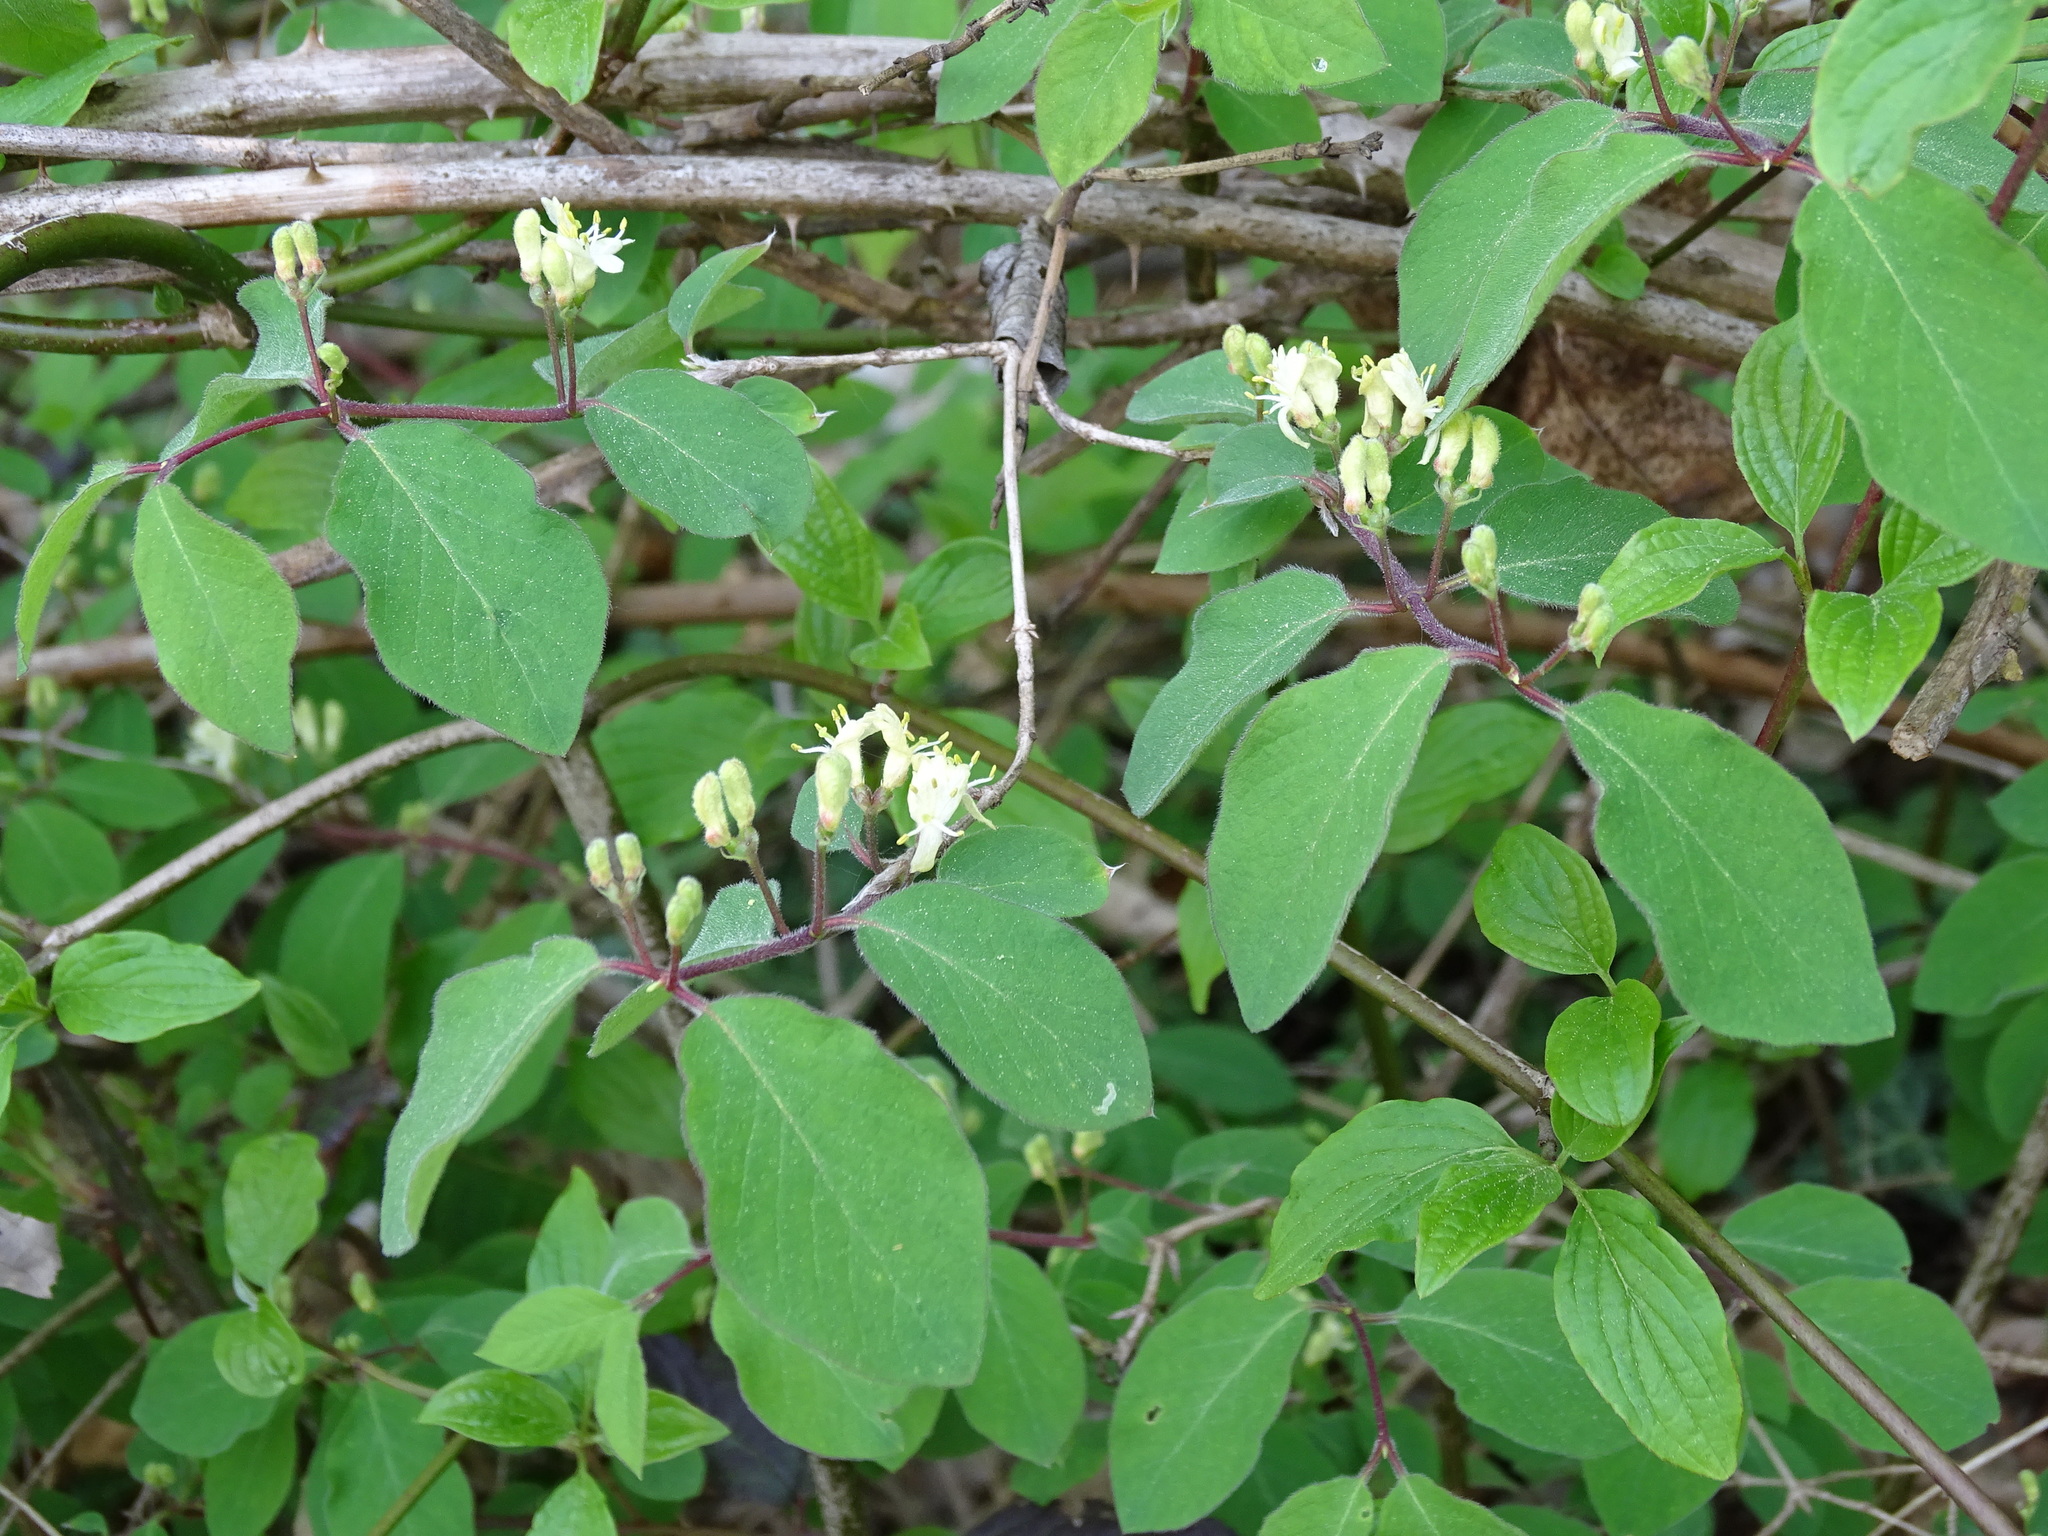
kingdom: Plantae
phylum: Tracheophyta
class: Magnoliopsida
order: Dipsacales
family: Caprifoliaceae
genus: Lonicera
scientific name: Lonicera xylosteum
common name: Fly honeysuckle
